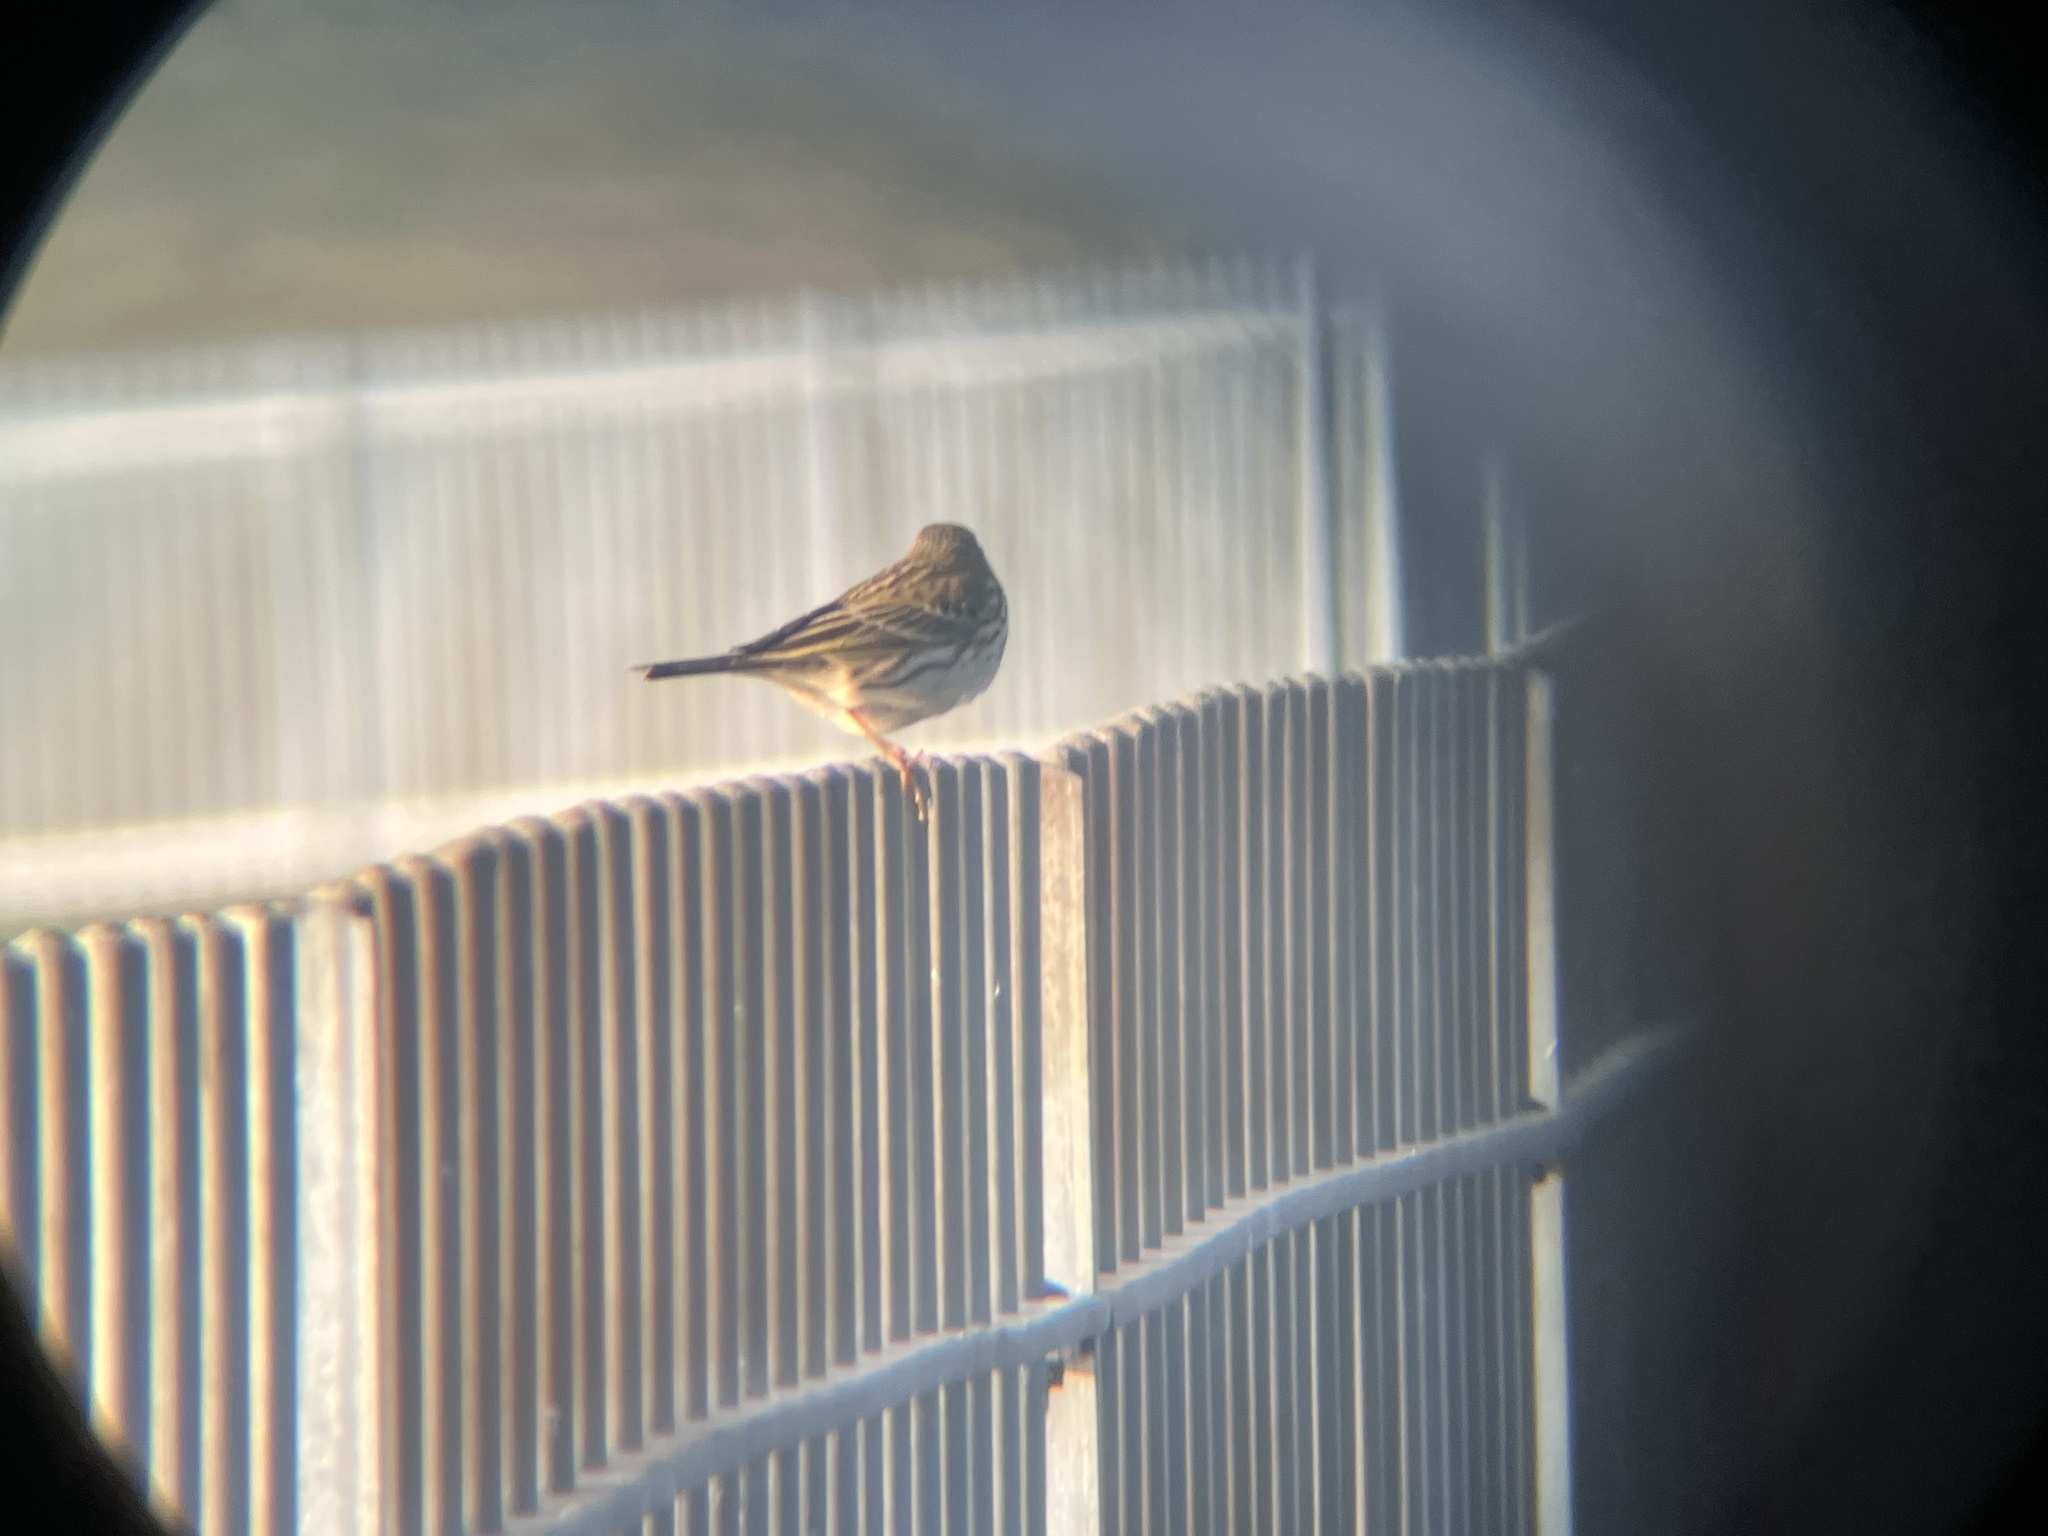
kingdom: Animalia
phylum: Chordata
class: Aves
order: Passeriformes
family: Motacillidae
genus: Anthus
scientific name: Anthus pratensis
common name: Meadow pipit
